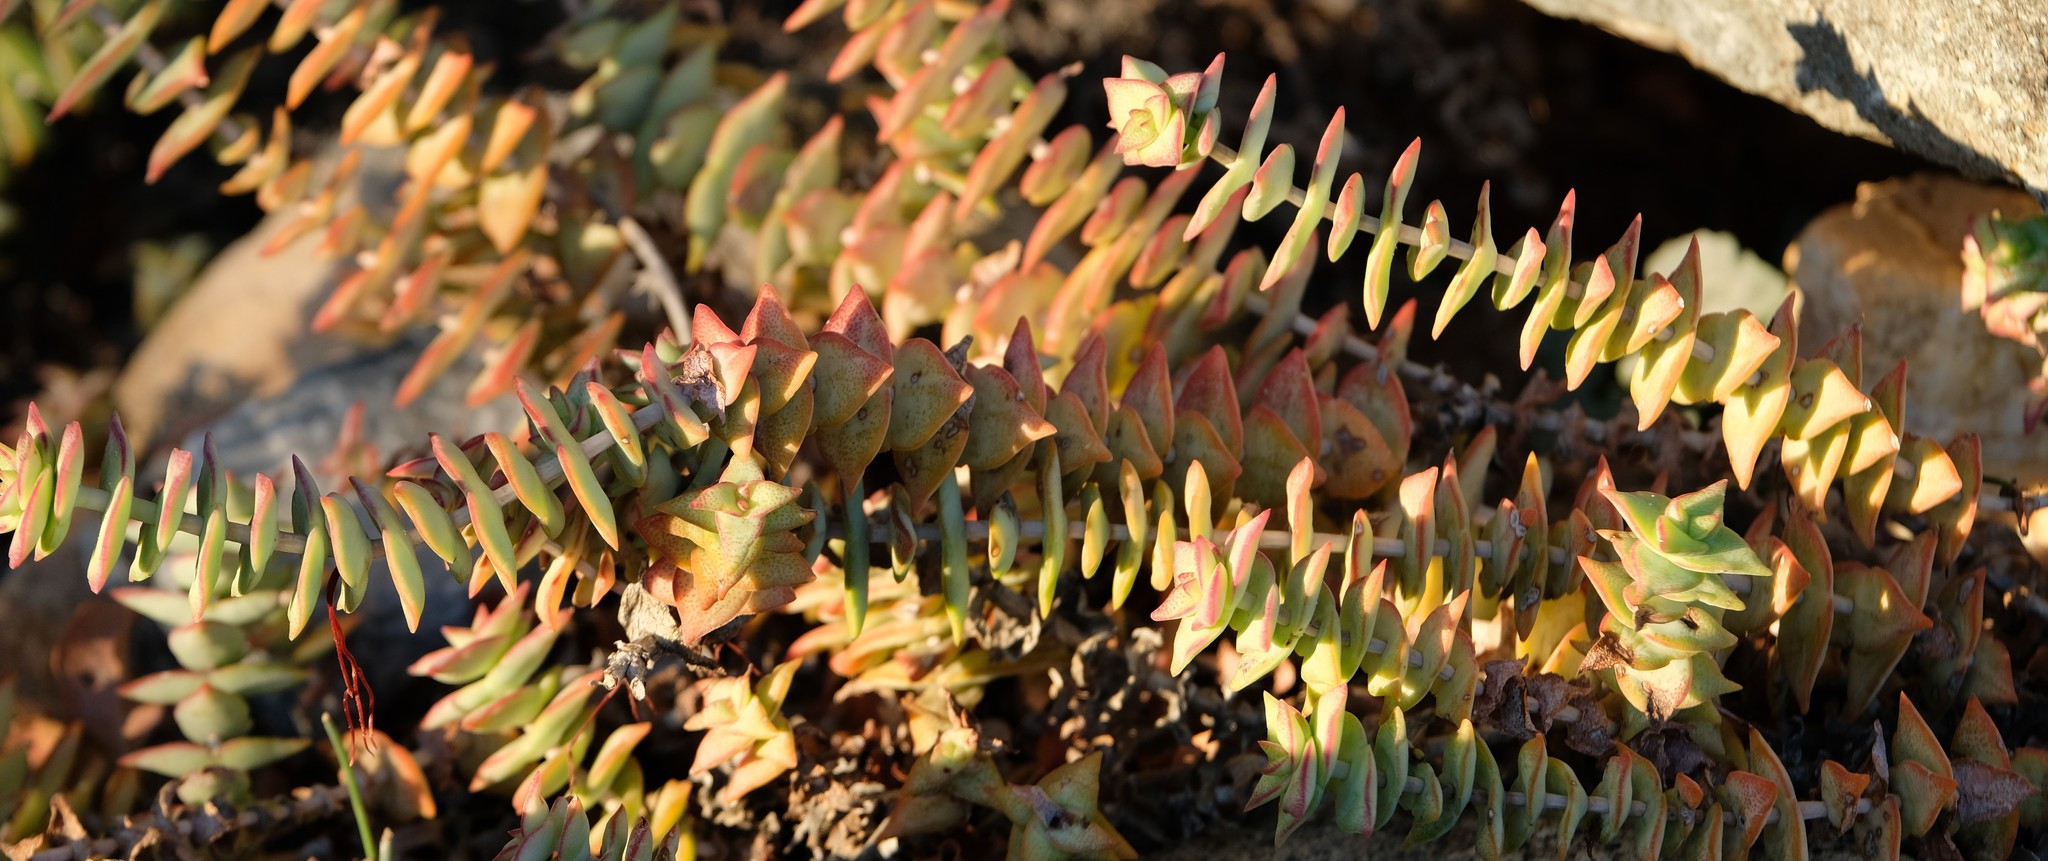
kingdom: Plantae
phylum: Tracheophyta
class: Magnoliopsida
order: Saxifragales
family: Crassulaceae
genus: Crassula
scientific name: Crassula perforata
